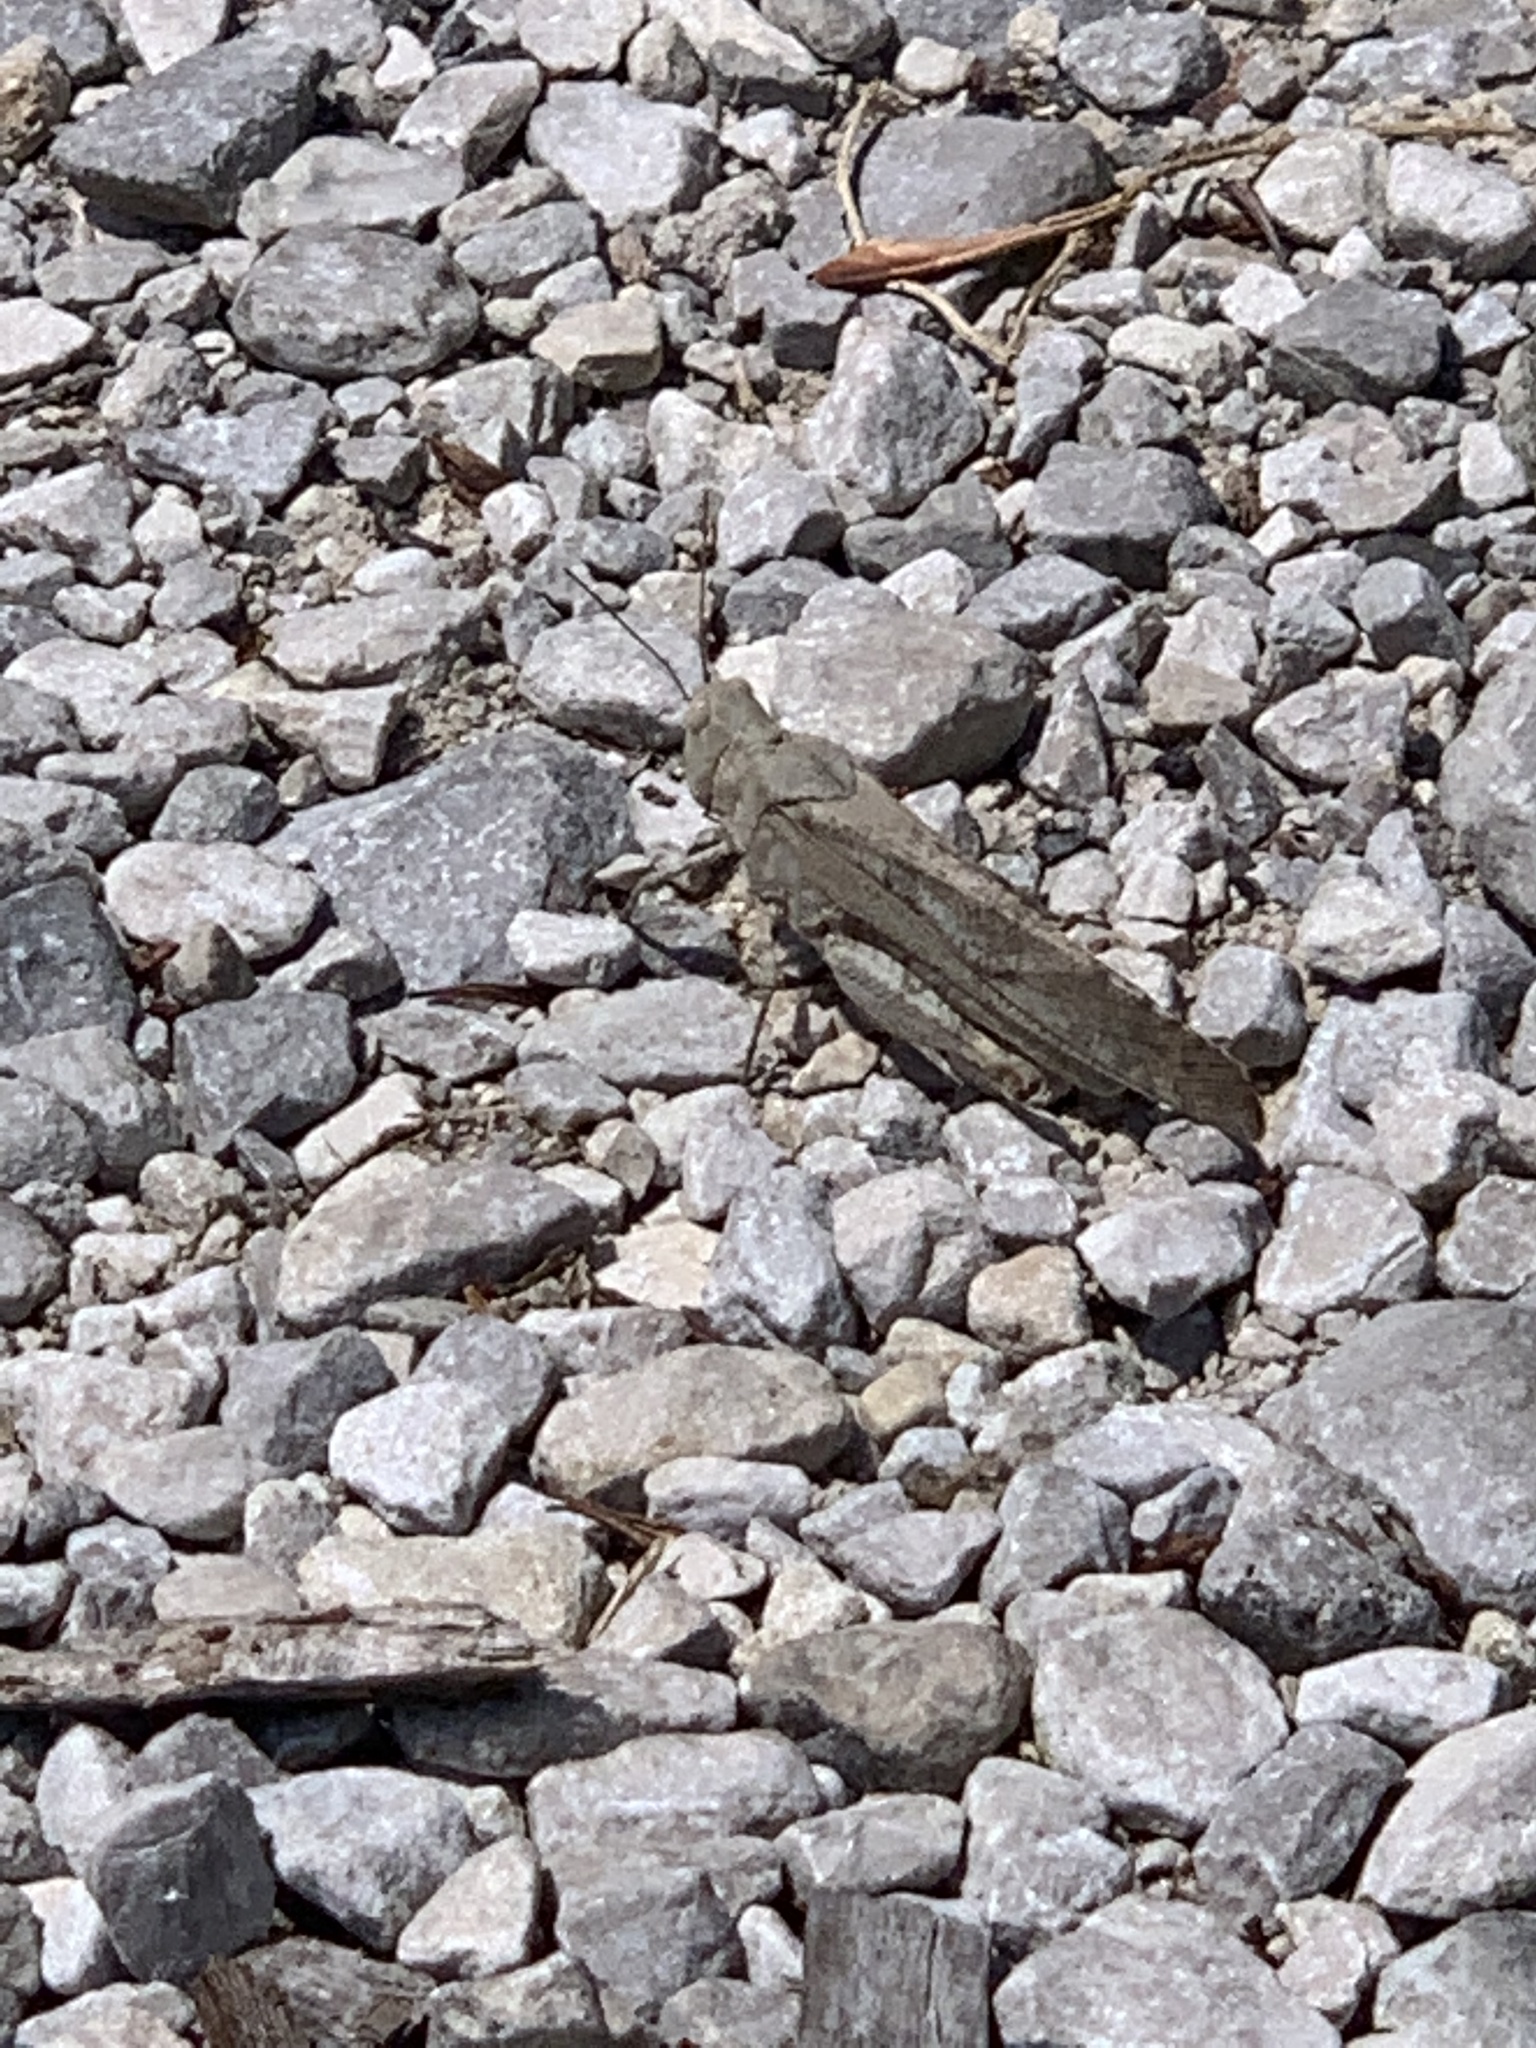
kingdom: Animalia
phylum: Arthropoda
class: Insecta
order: Orthoptera
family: Acrididae
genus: Dissosteira
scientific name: Dissosteira carolina
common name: Carolina grasshopper
